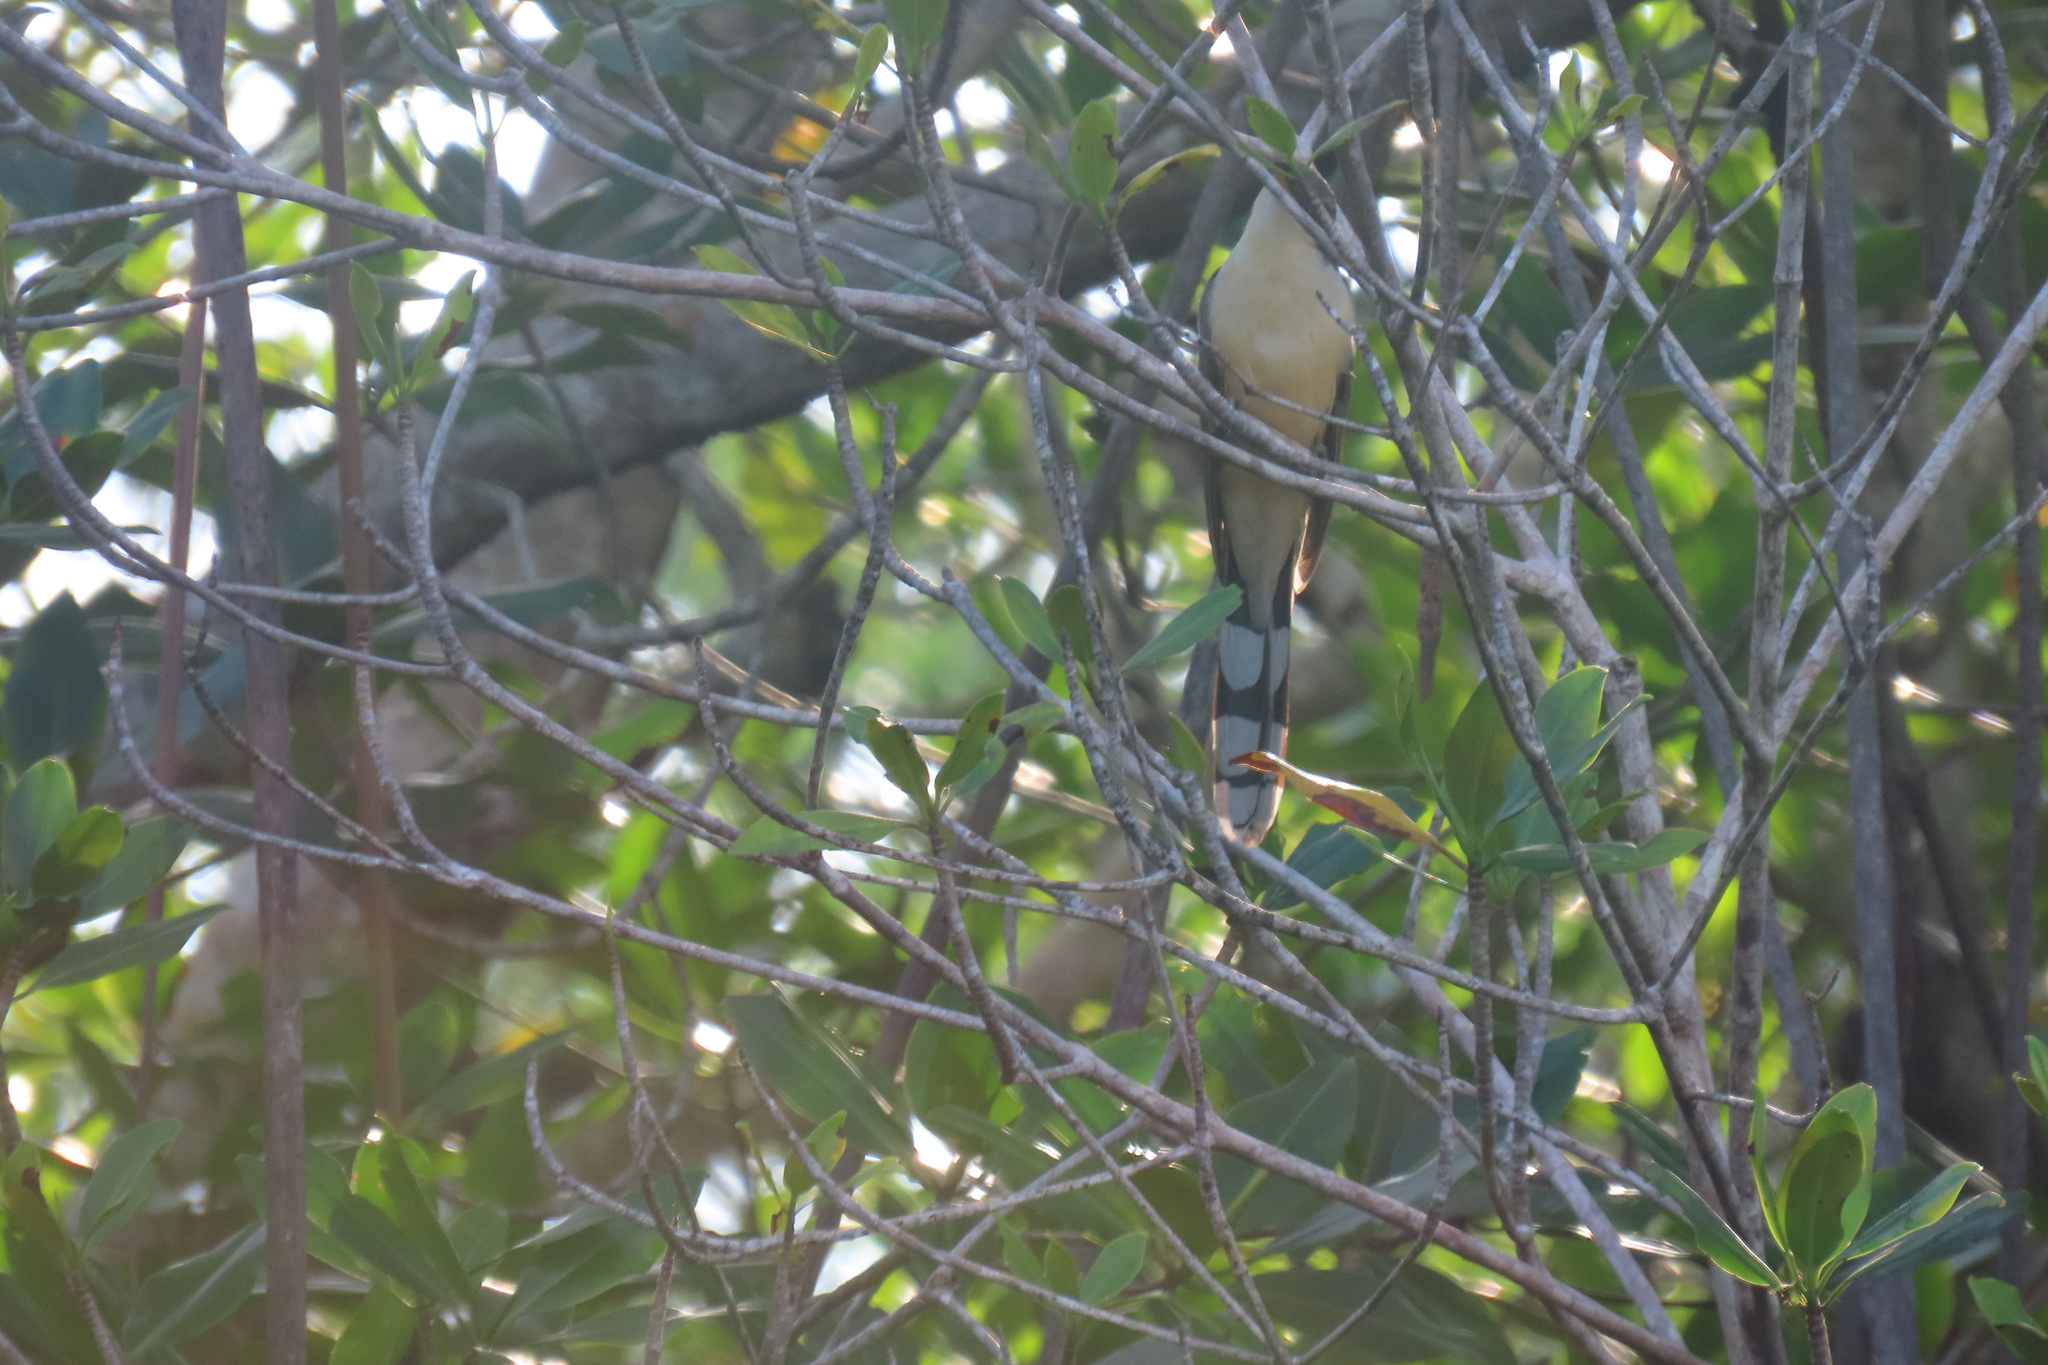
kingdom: Animalia
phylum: Chordata
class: Aves
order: Cuculiformes
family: Cuculidae
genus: Coccyzus
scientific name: Coccyzus minor
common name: Mangrove cuckoo
